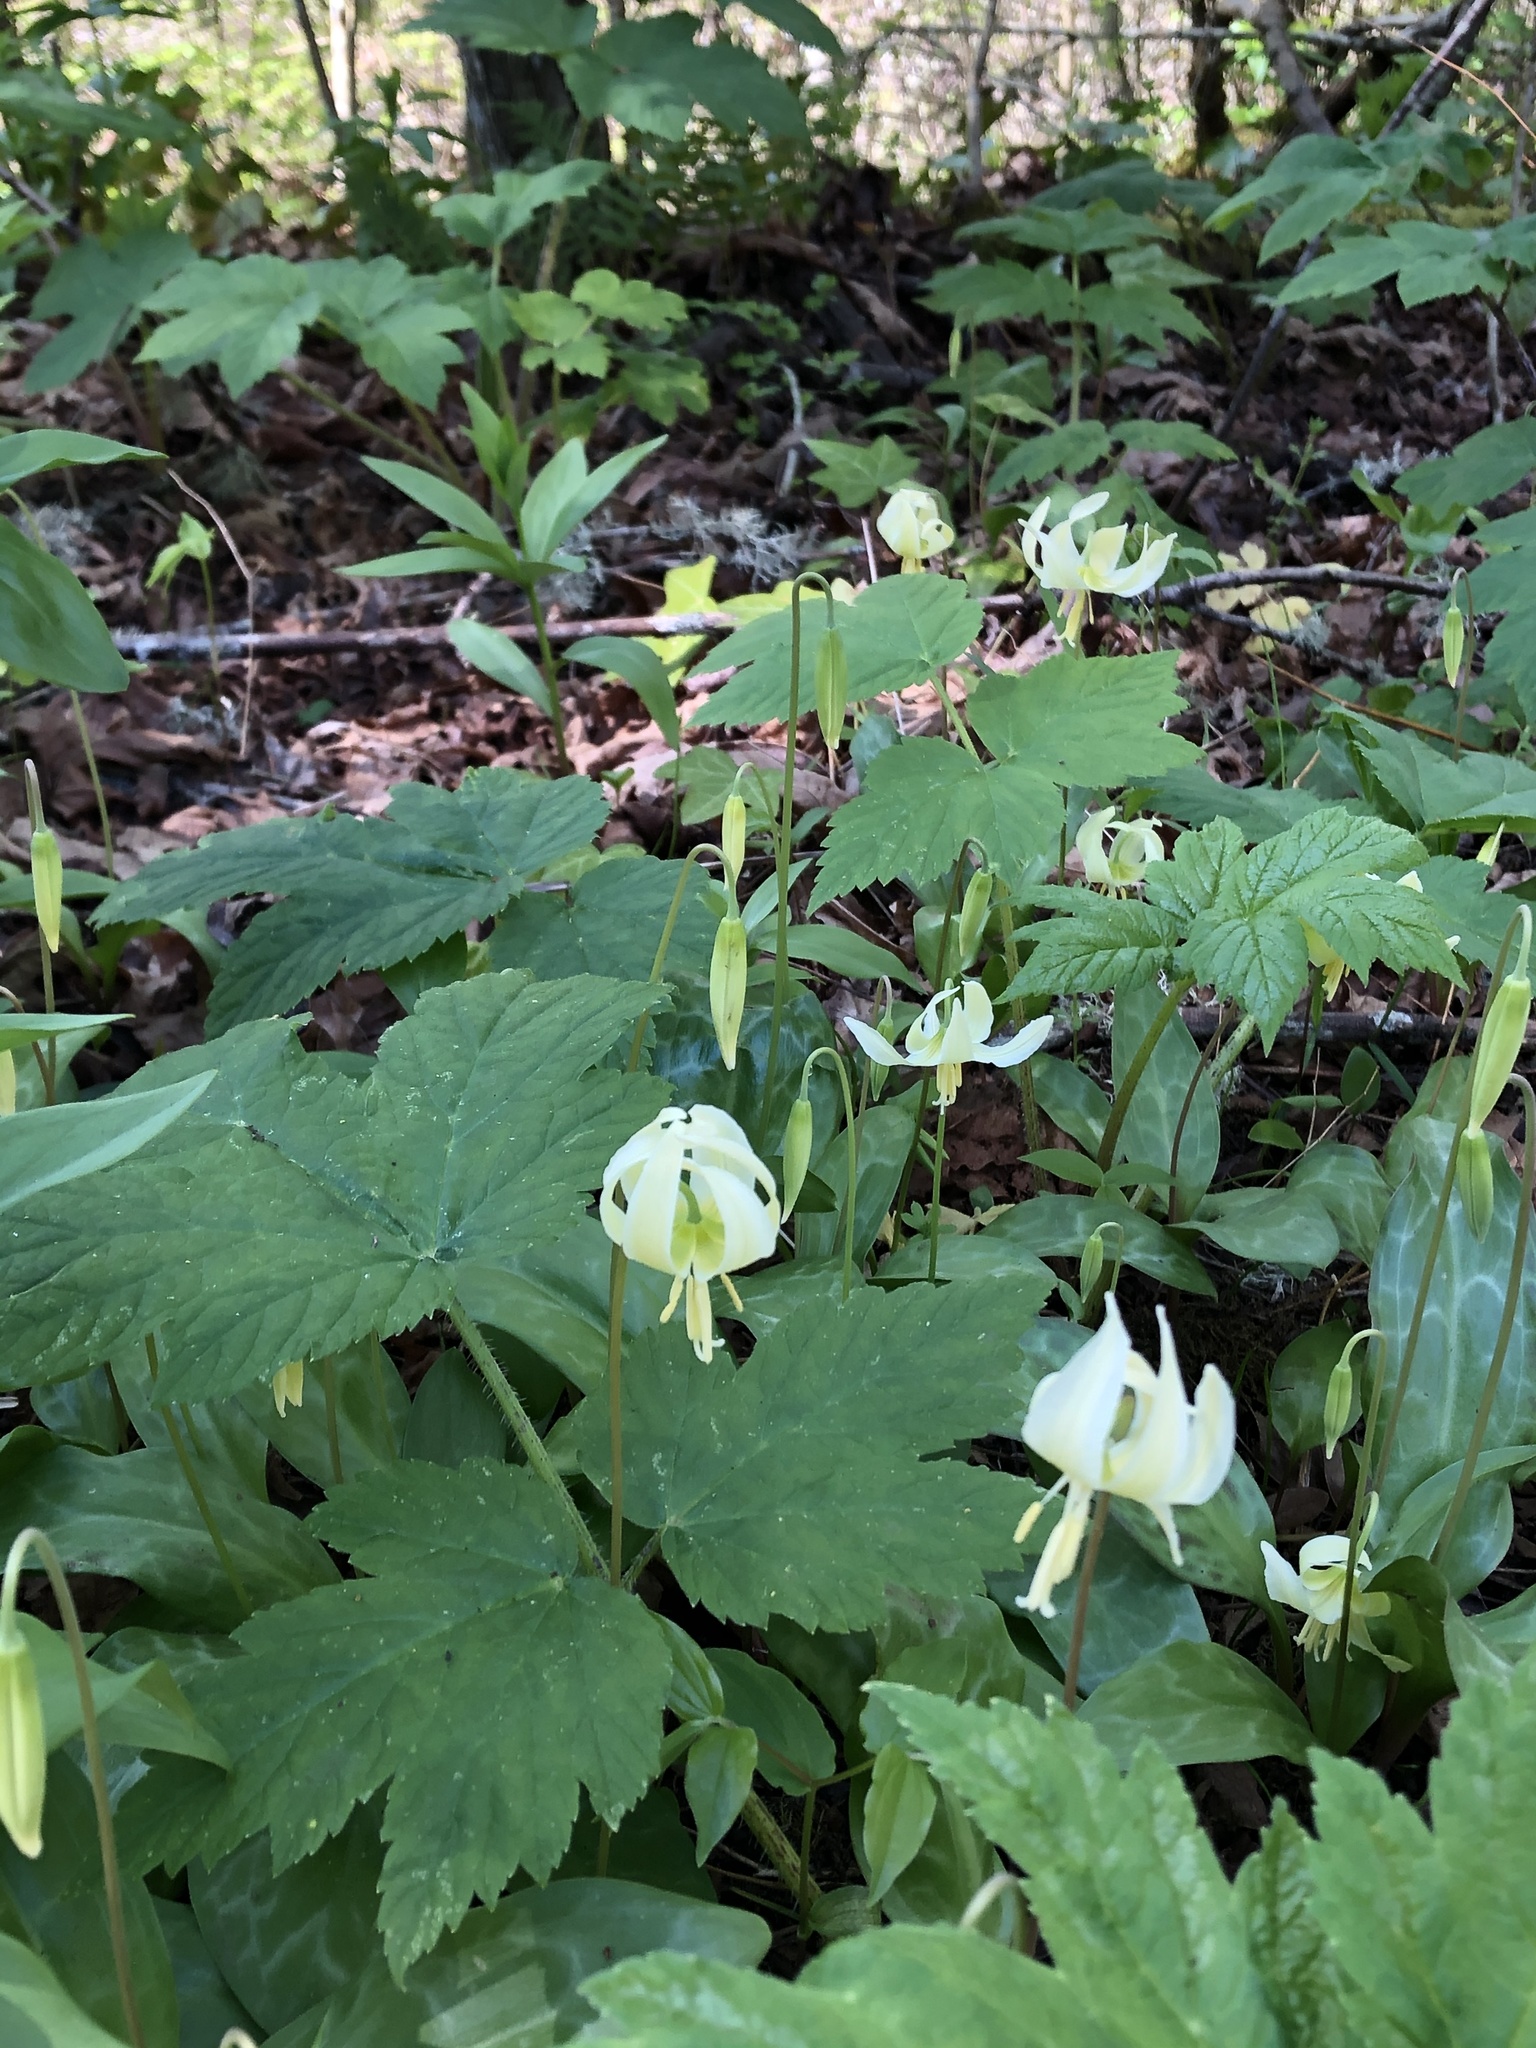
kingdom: Plantae
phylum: Tracheophyta
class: Liliopsida
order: Liliales
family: Liliaceae
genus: Erythronium
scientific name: Erythronium oregonum
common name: Giant adder's-tongue
